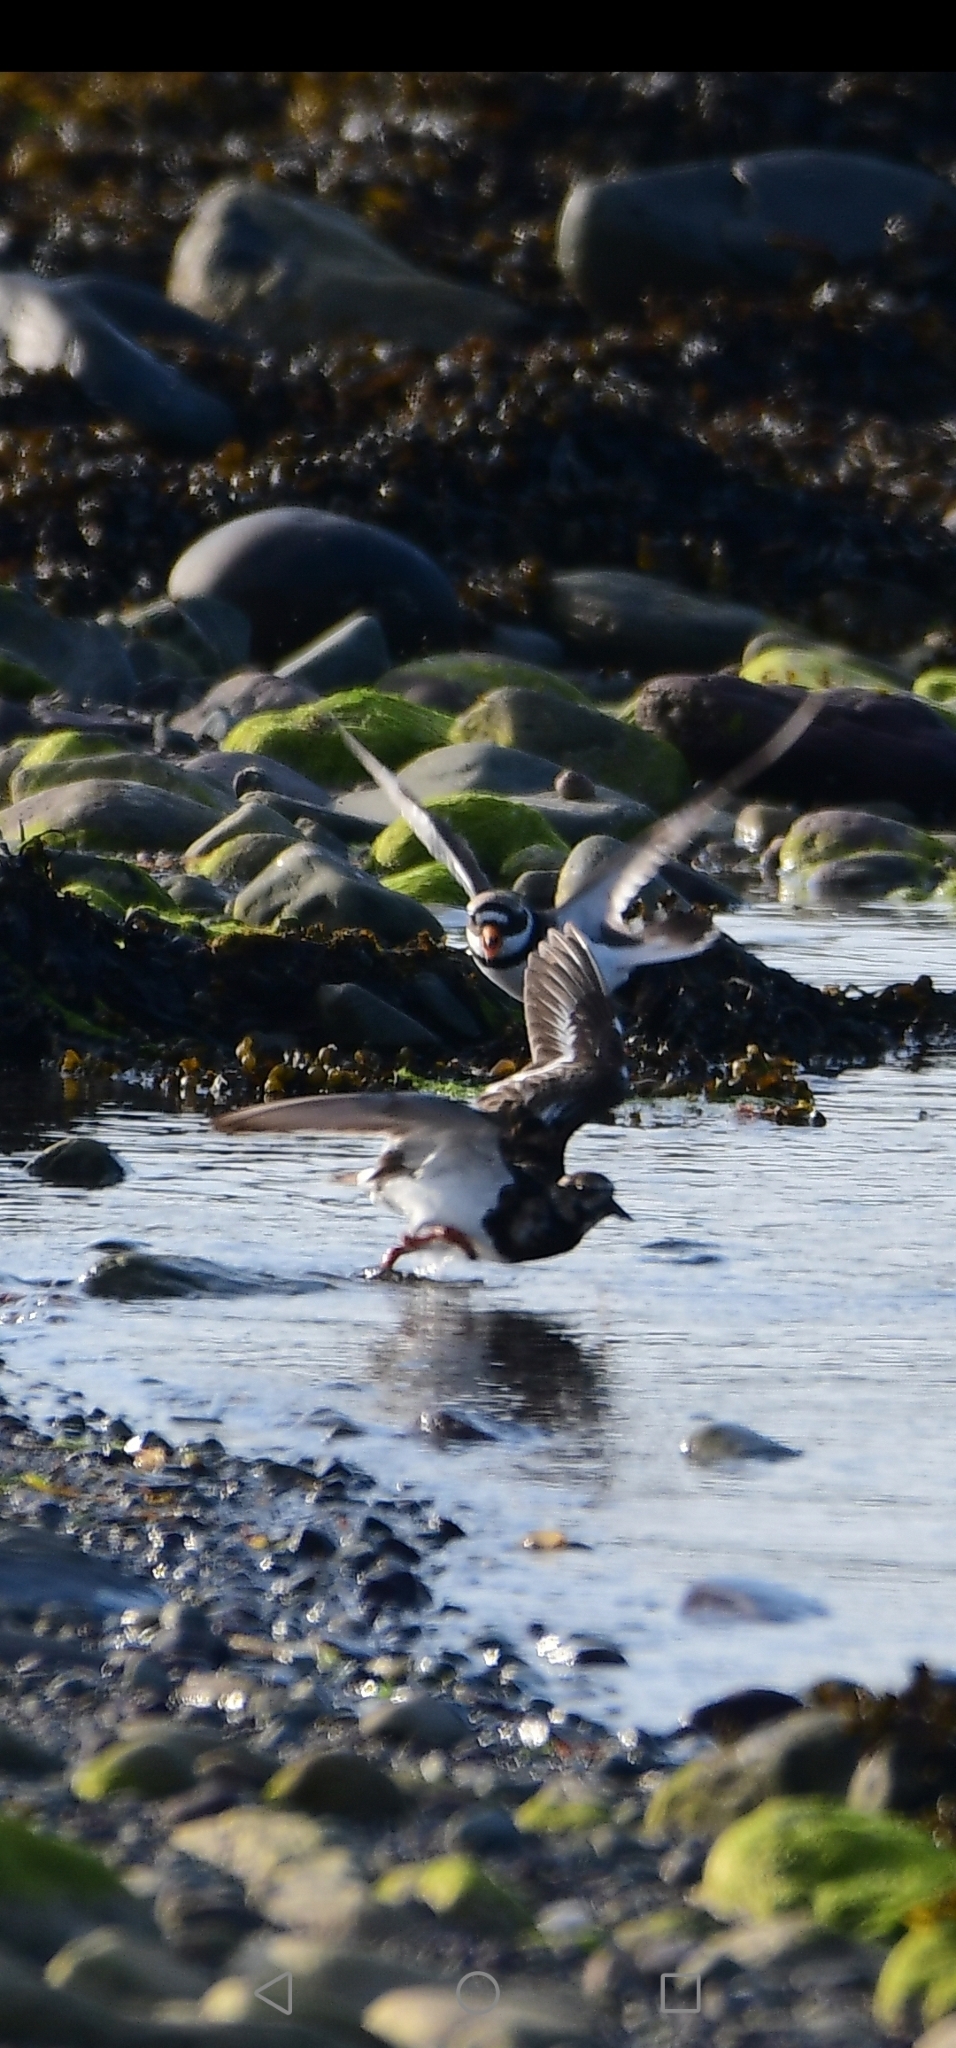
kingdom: Animalia
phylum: Chordata
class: Aves
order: Charadriiformes
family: Scolopacidae
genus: Arenaria
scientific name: Arenaria interpres
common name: Ruddy turnstone
